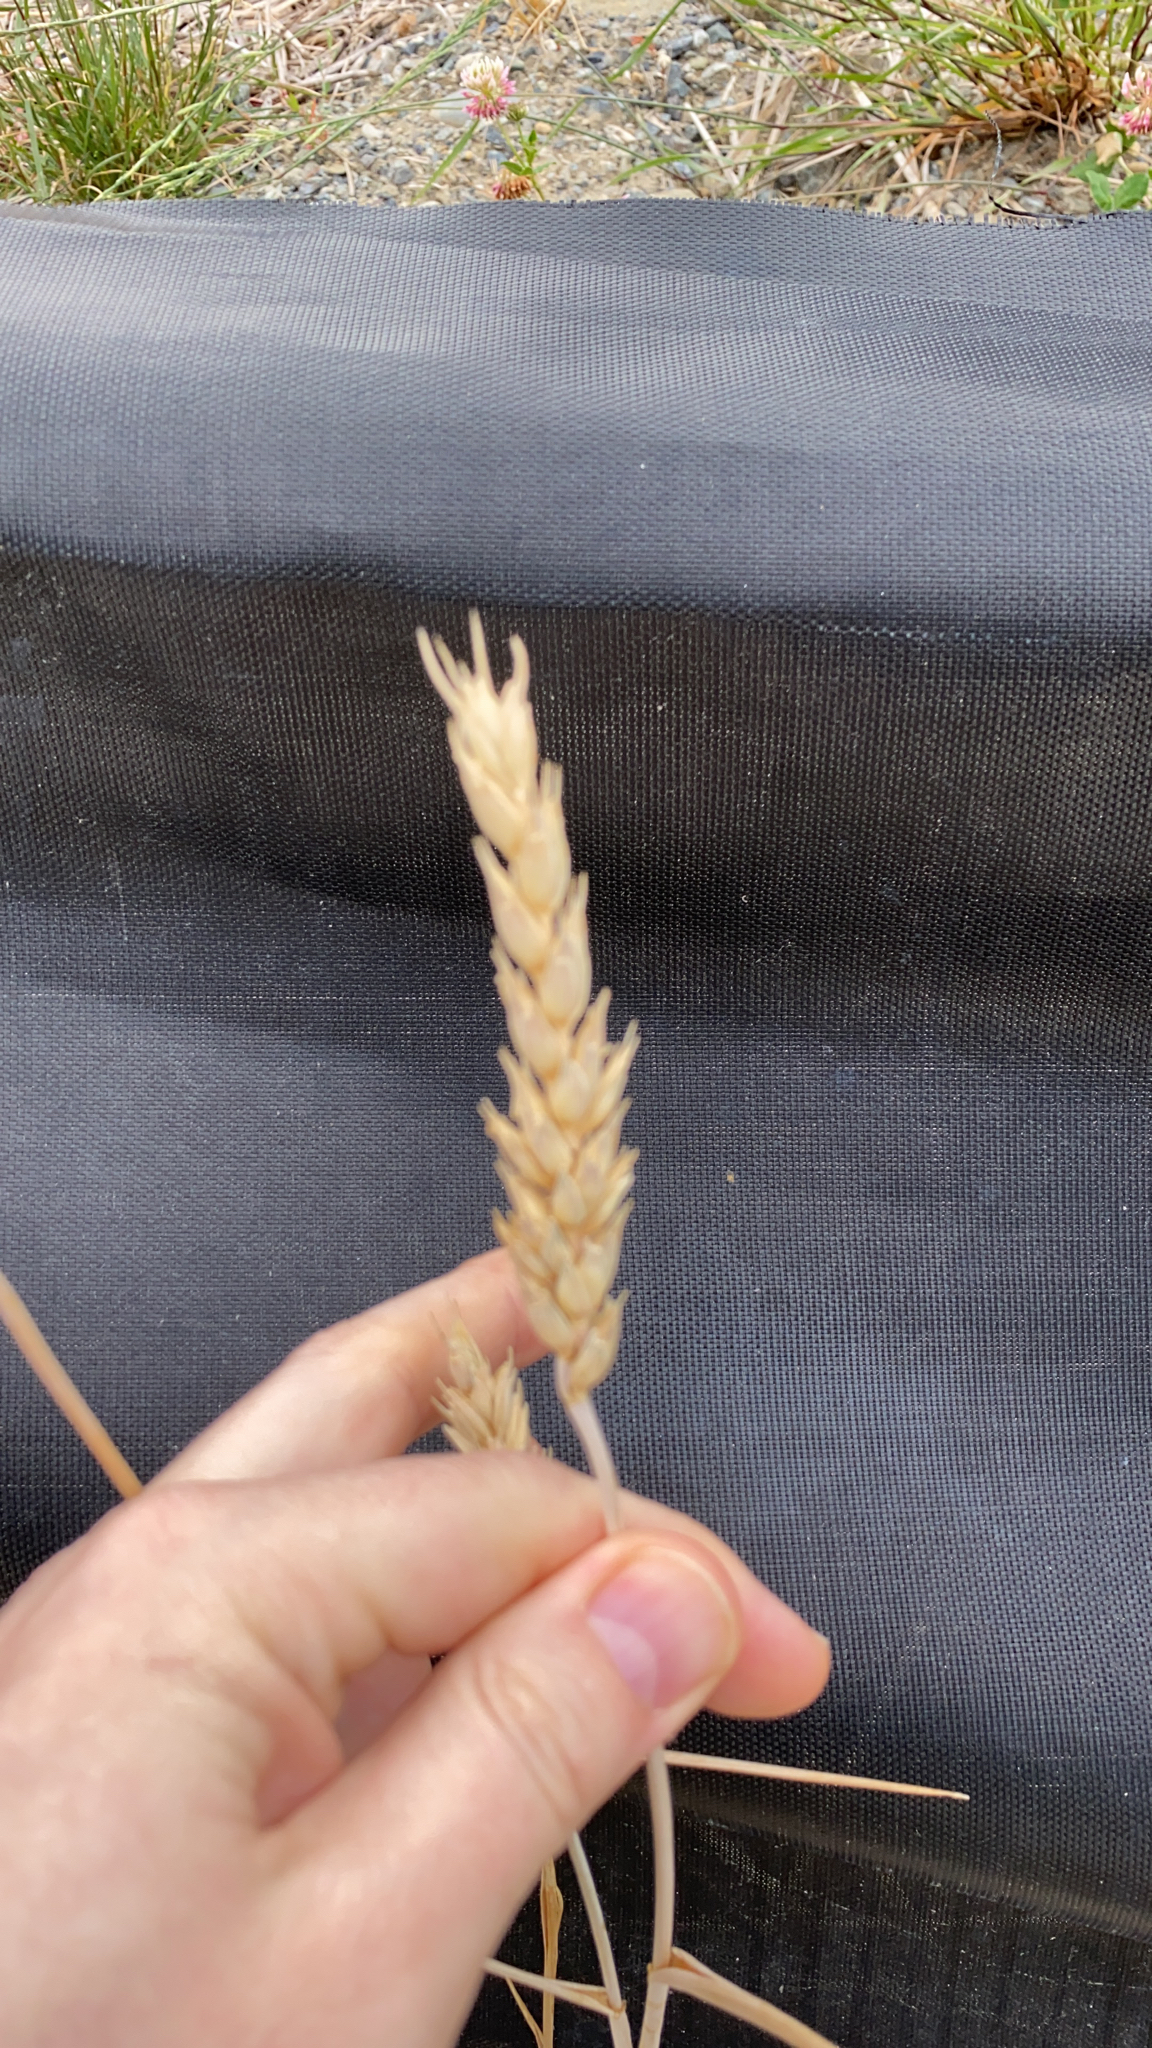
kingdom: Plantae
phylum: Tracheophyta
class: Liliopsida
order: Poales
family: Poaceae
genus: Triticum
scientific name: Triticum aestivum
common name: Common wheat
